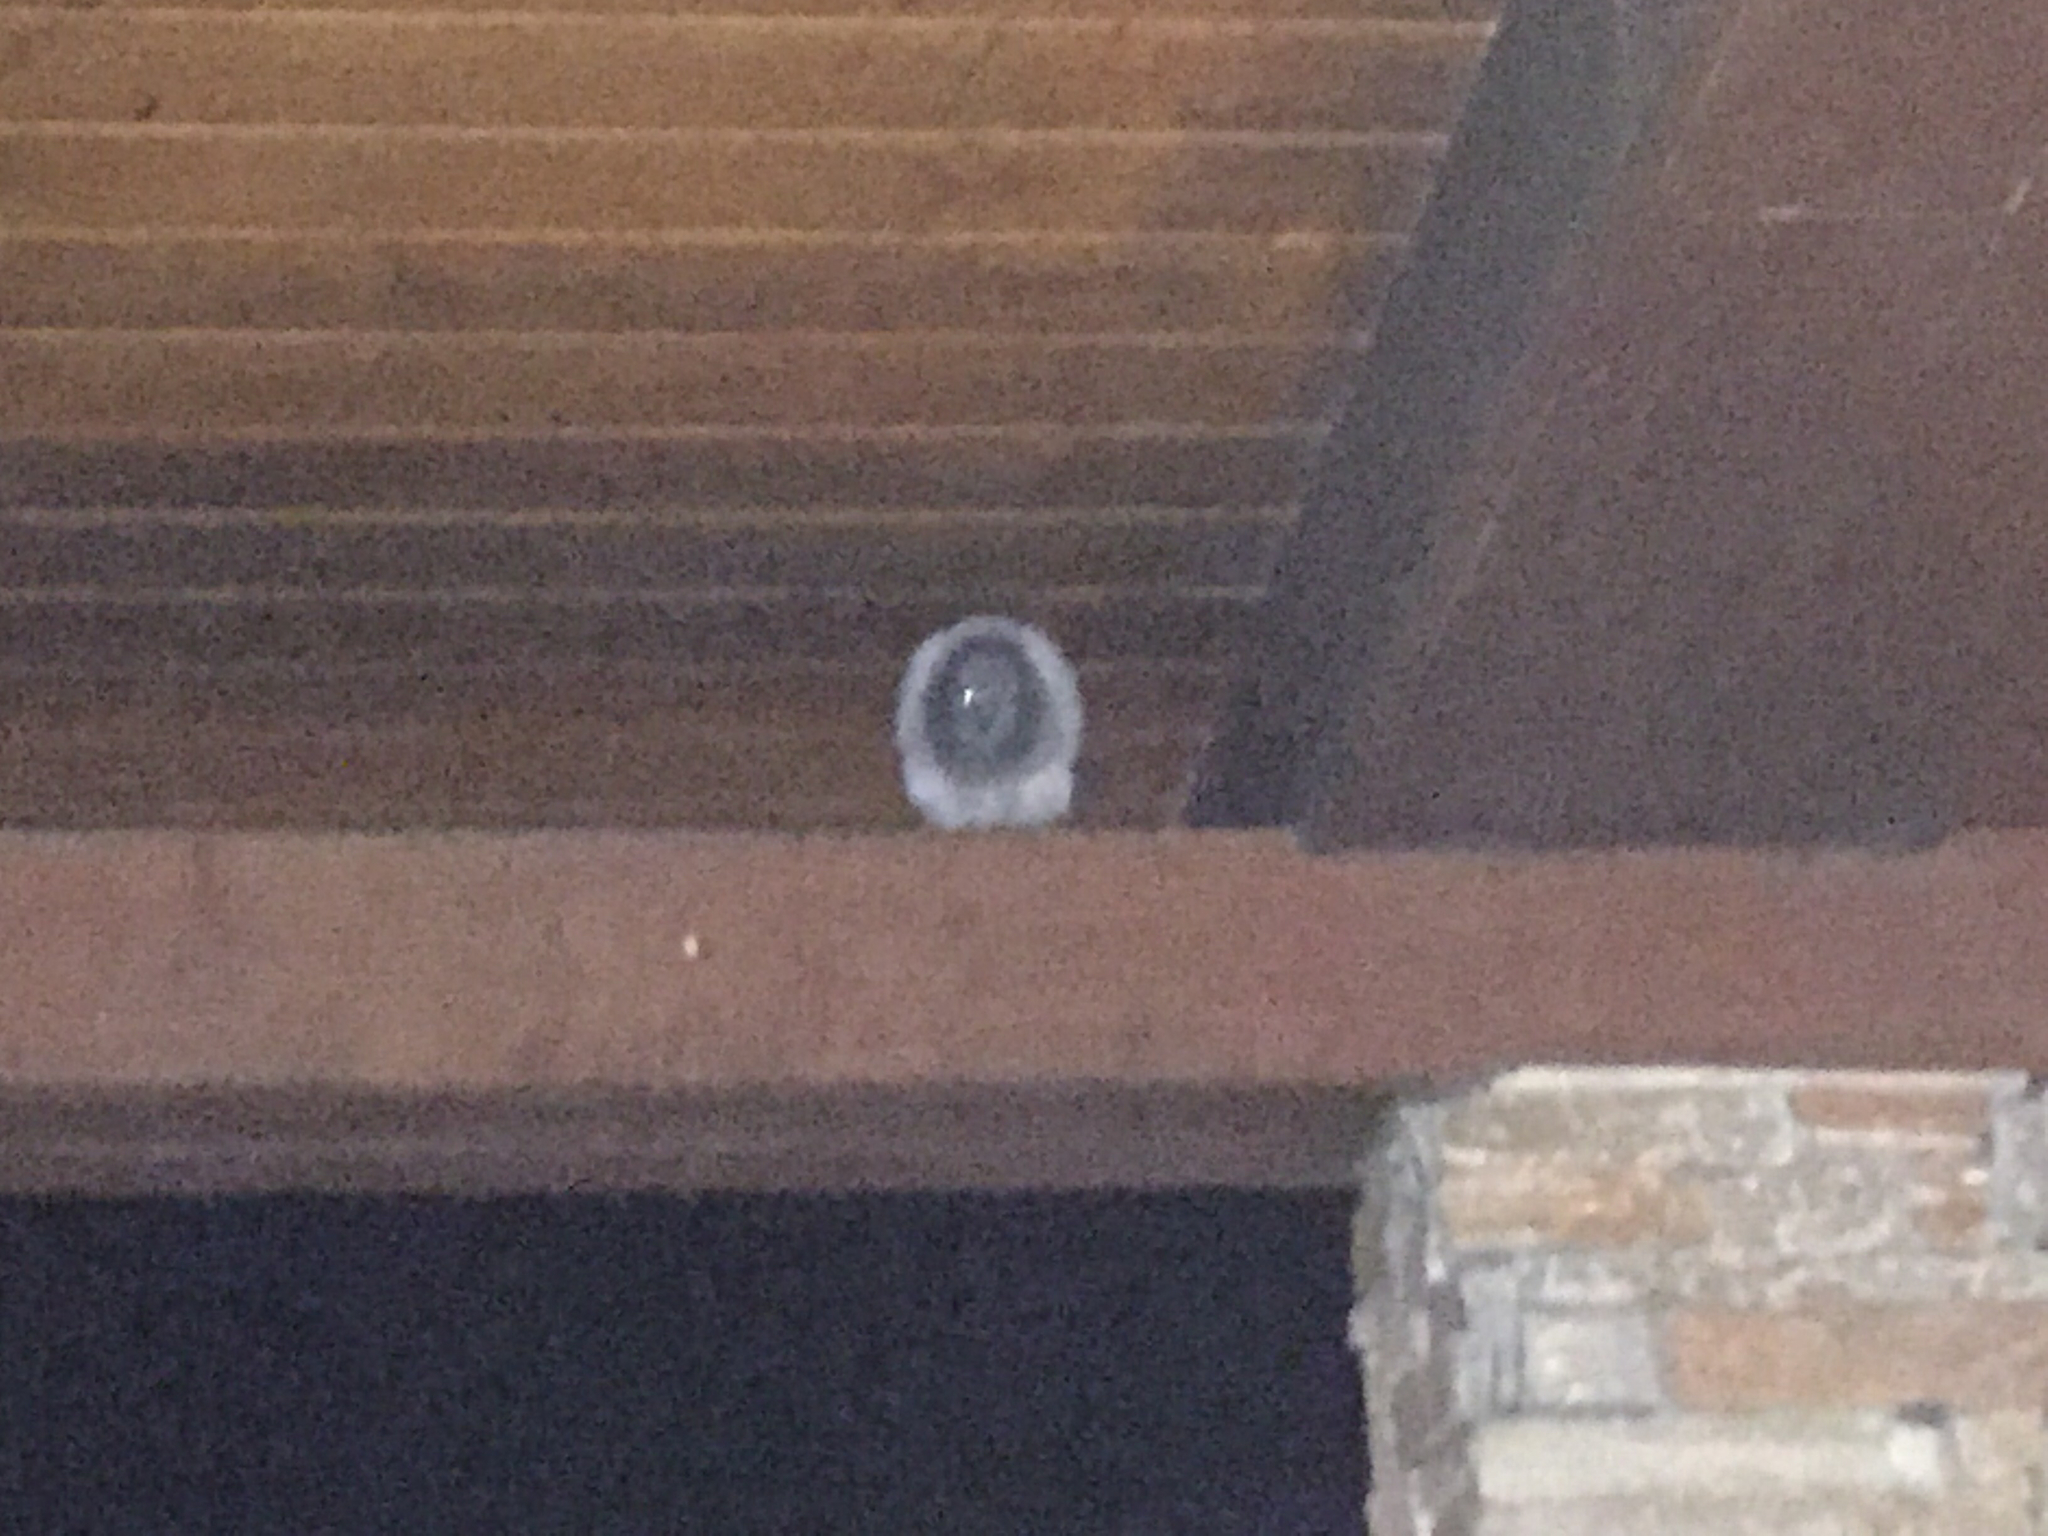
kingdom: Animalia
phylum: Chordata
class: Aves
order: Columbiformes
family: Columbidae
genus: Columba
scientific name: Columba livia
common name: Rock pigeon
